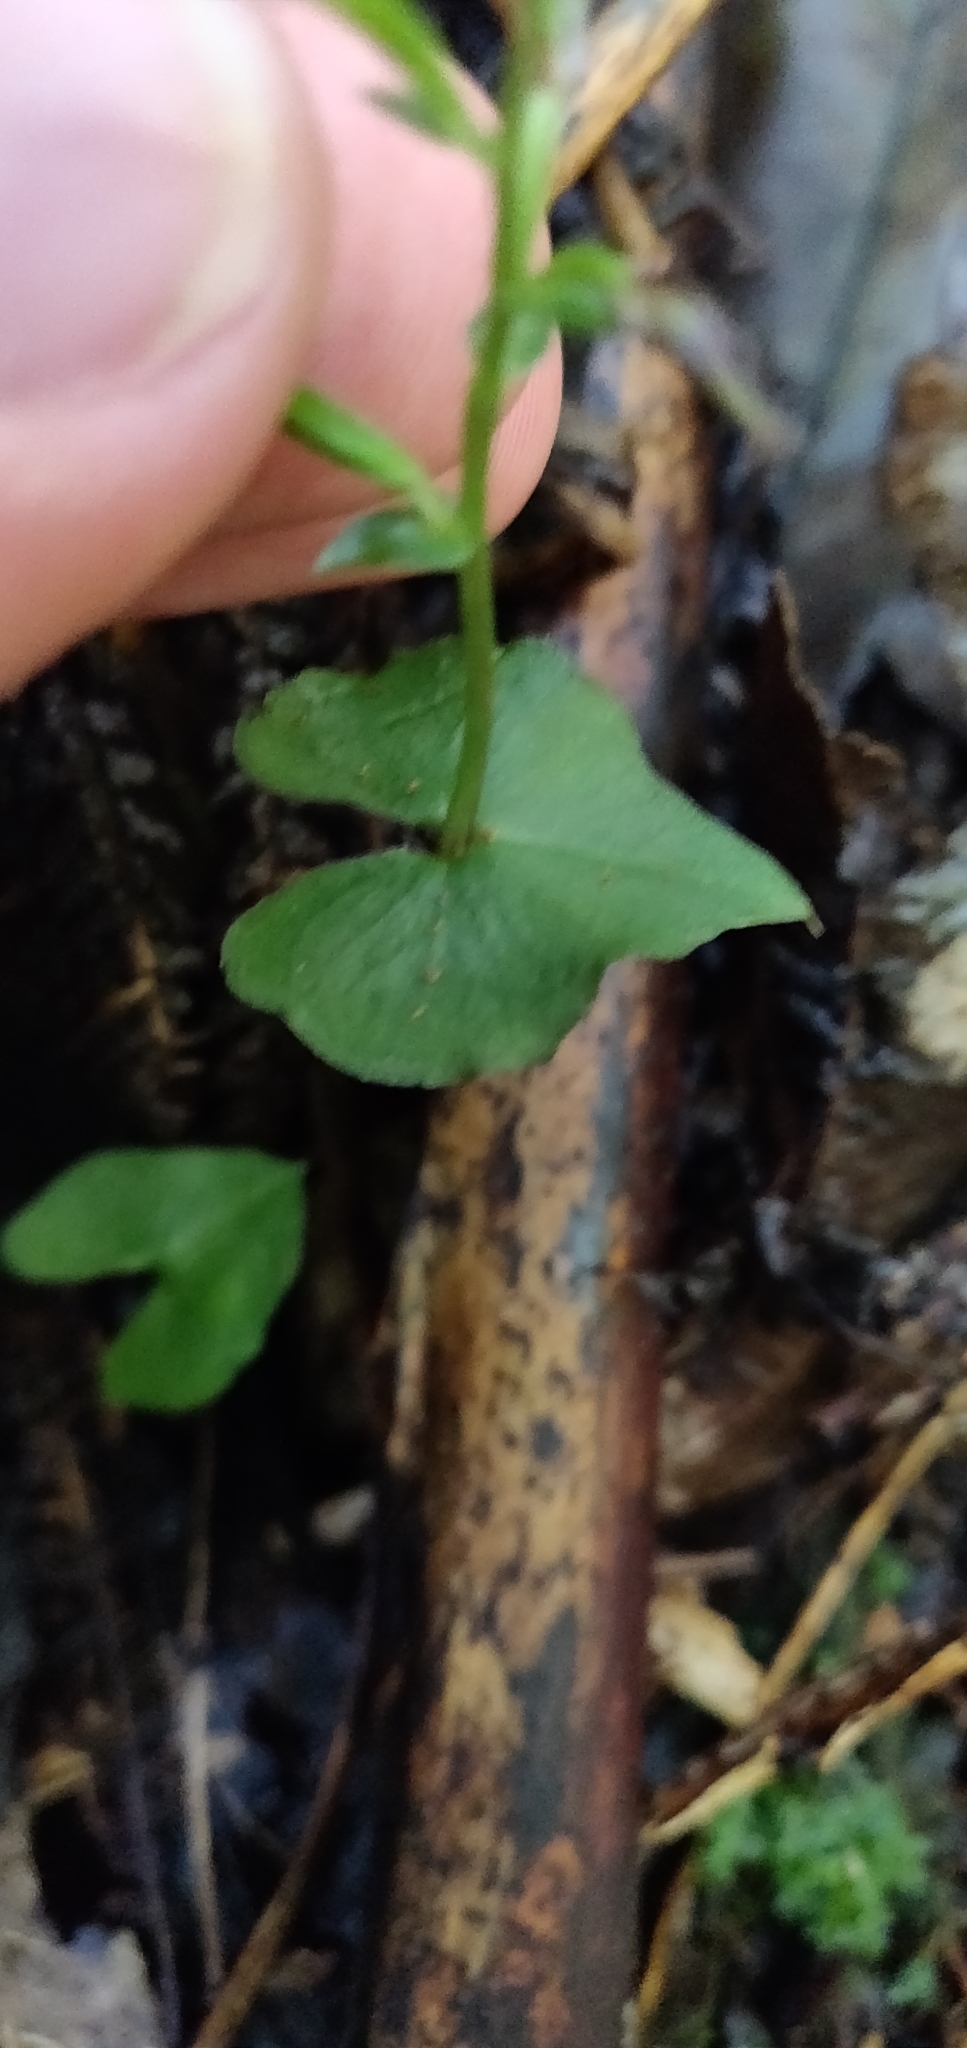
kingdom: Plantae
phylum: Tracheophyta
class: Liliopsida
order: Asparagales
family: Orchidaceae
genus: Acianthus
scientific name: Acianthus sinclairii
